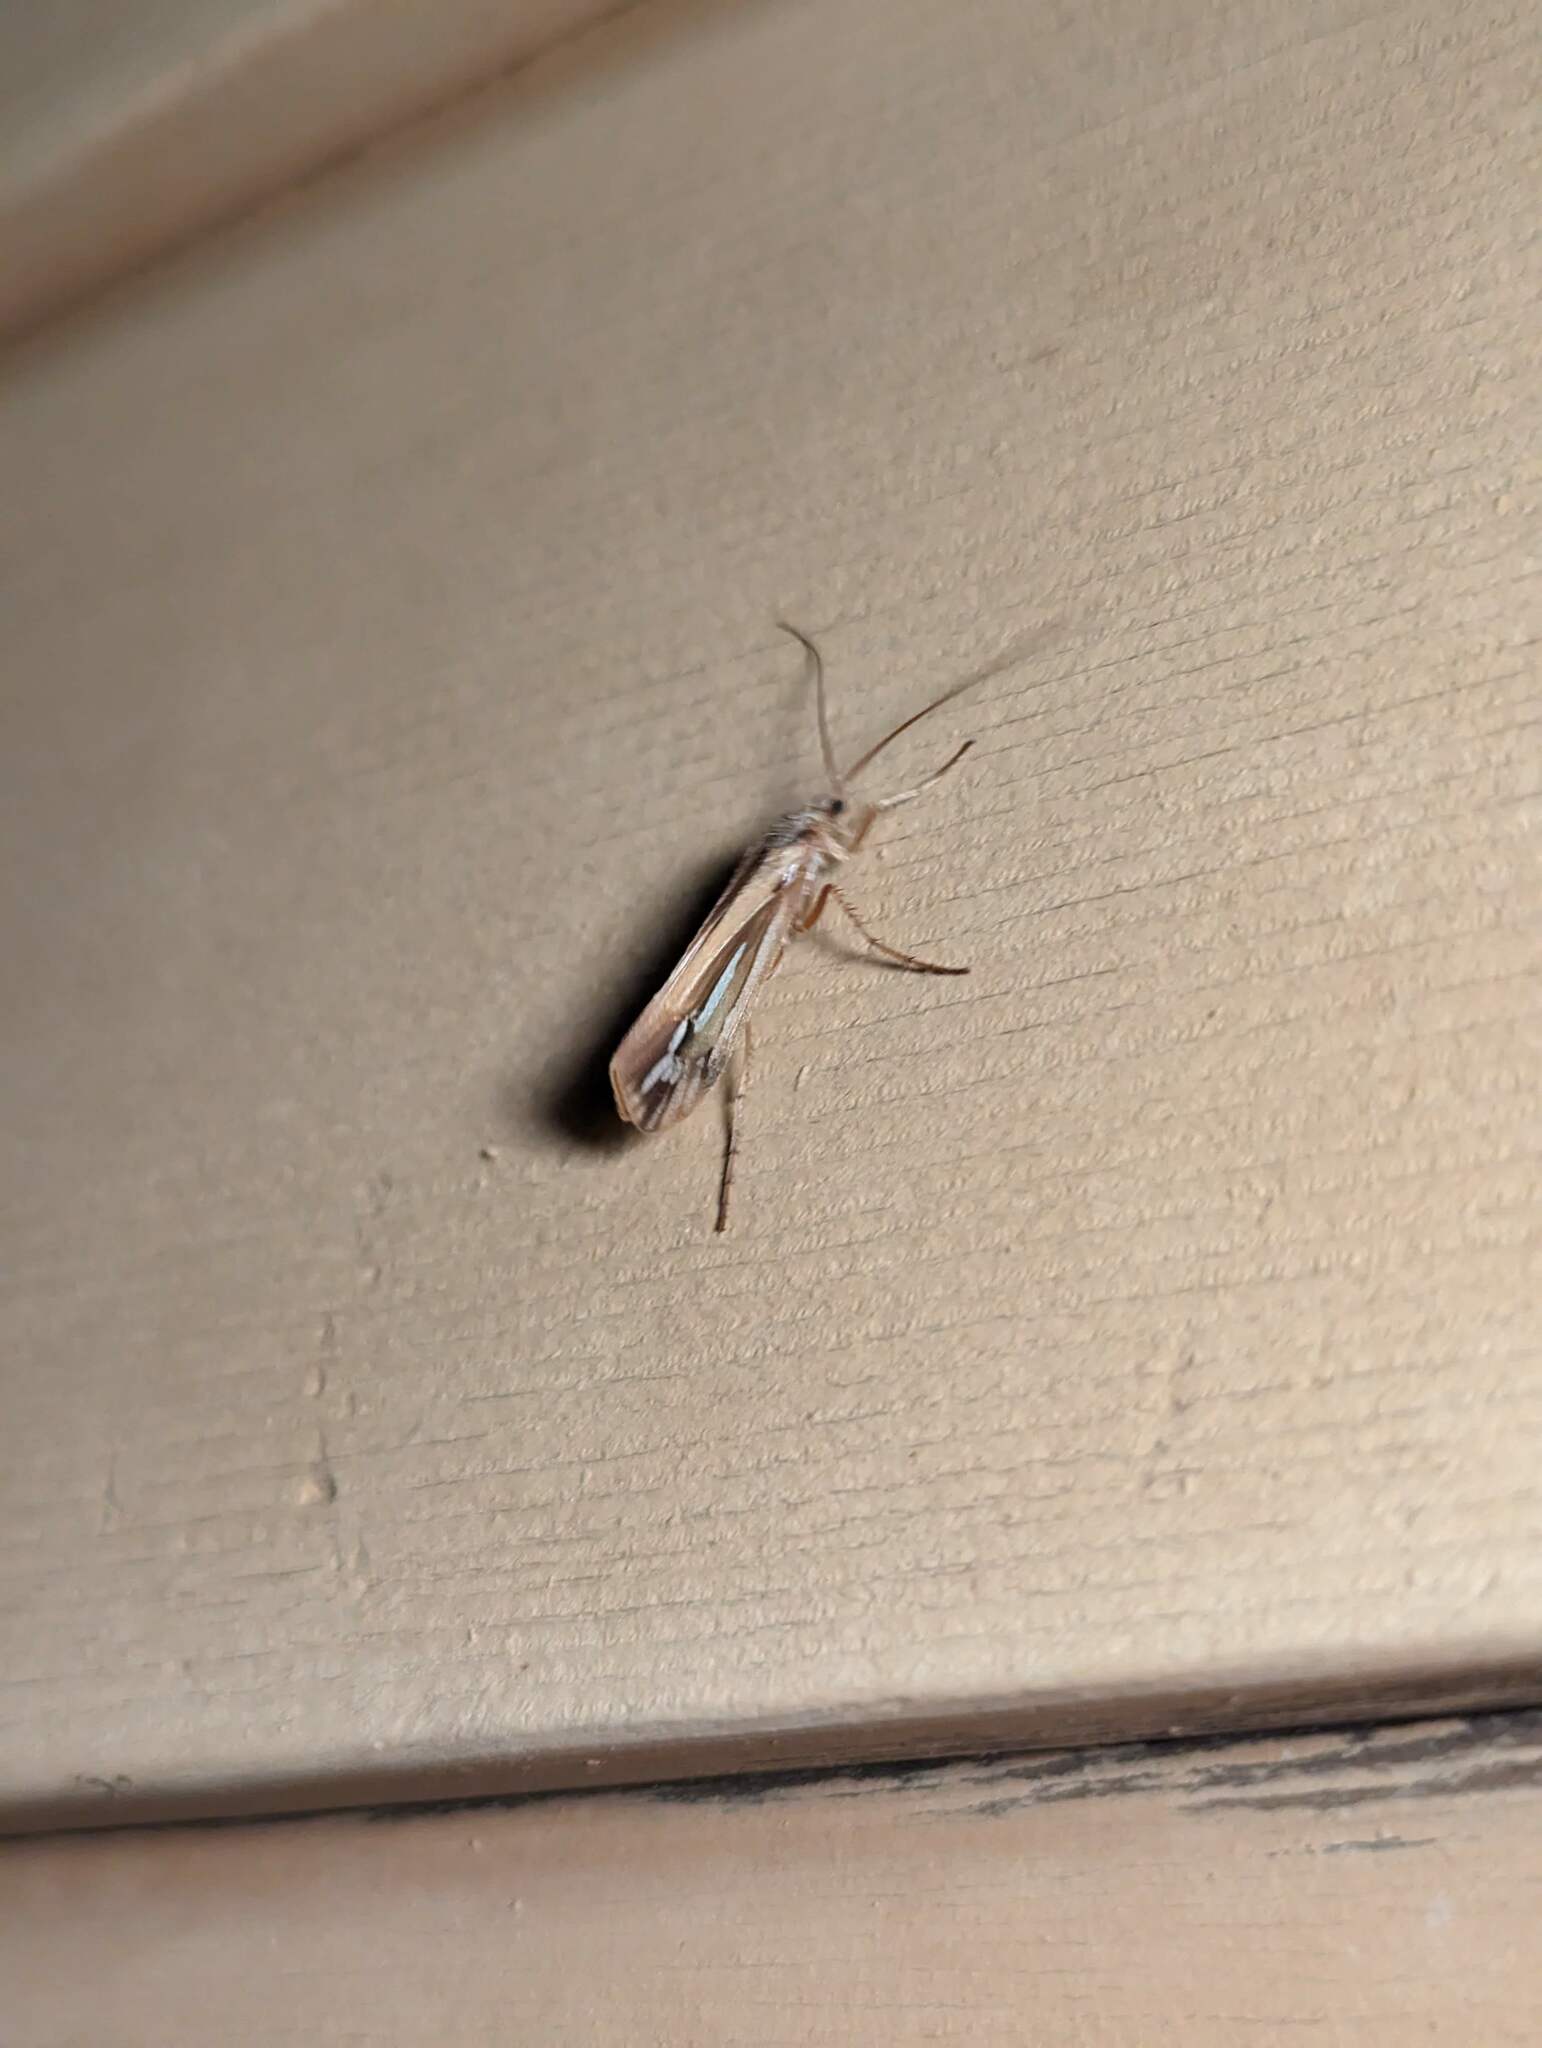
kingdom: Animalia
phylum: Arthropoda
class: Insecta
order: Trichoptera
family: Limnephilidae
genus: Limnephilus
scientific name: Limnephilus ornatus
